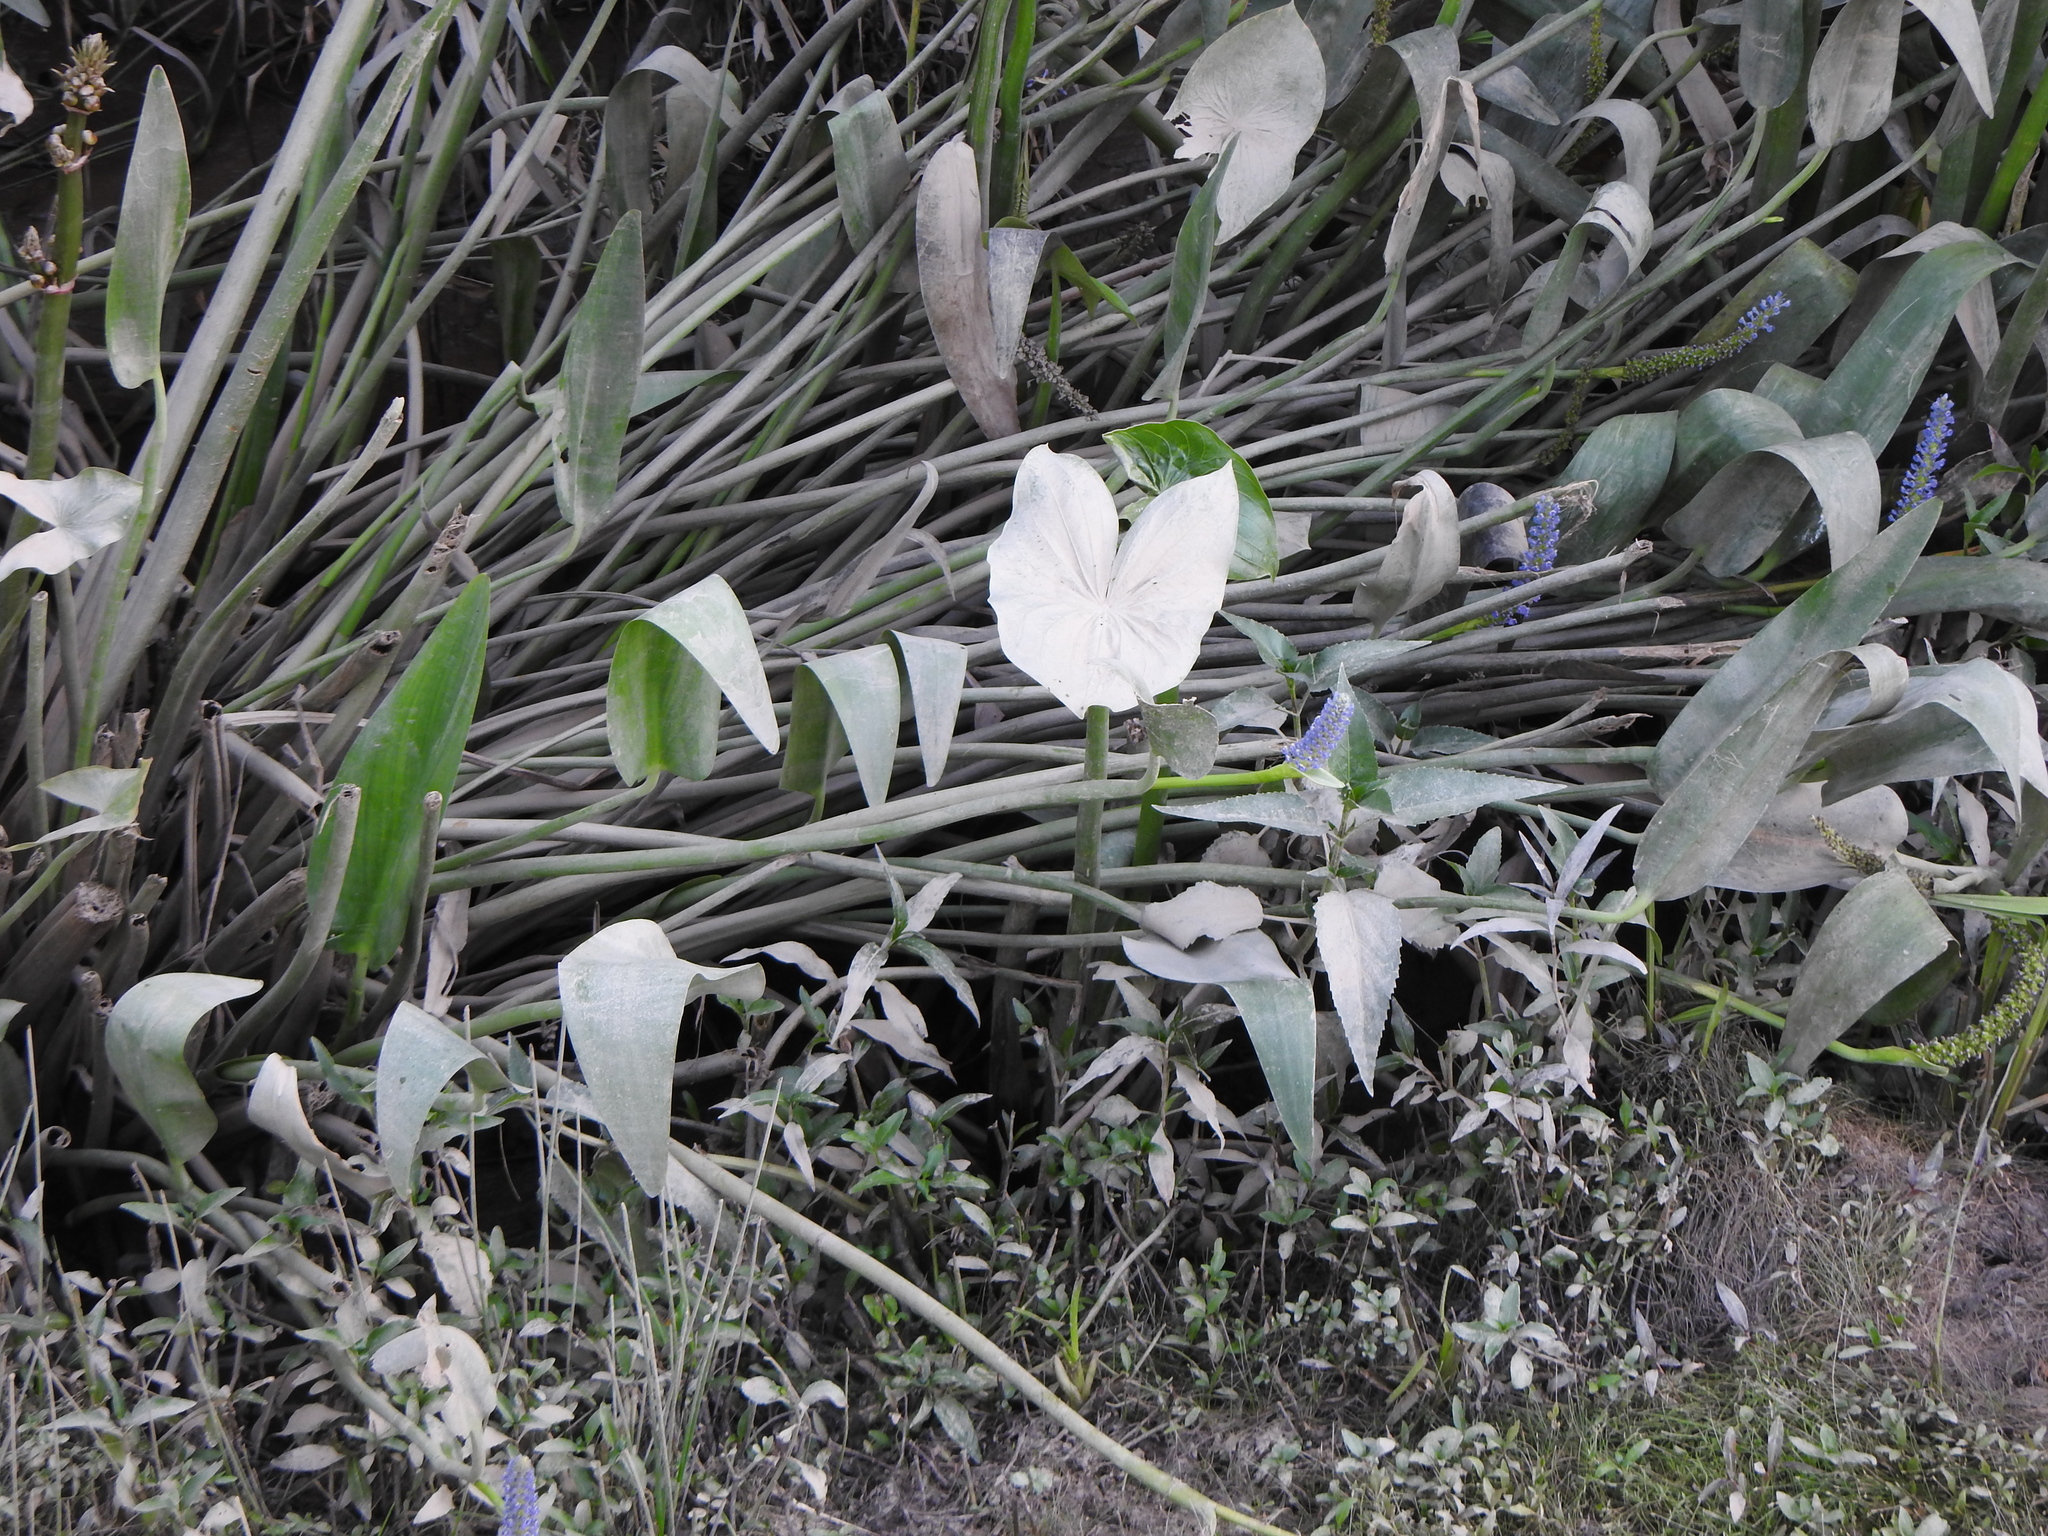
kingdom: Plantae
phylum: Tracheophyta
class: Liliopsida
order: Commelinales
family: Pontederiaceae
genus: Pontederia
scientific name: Pontederia cordata
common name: Pickerelweed
